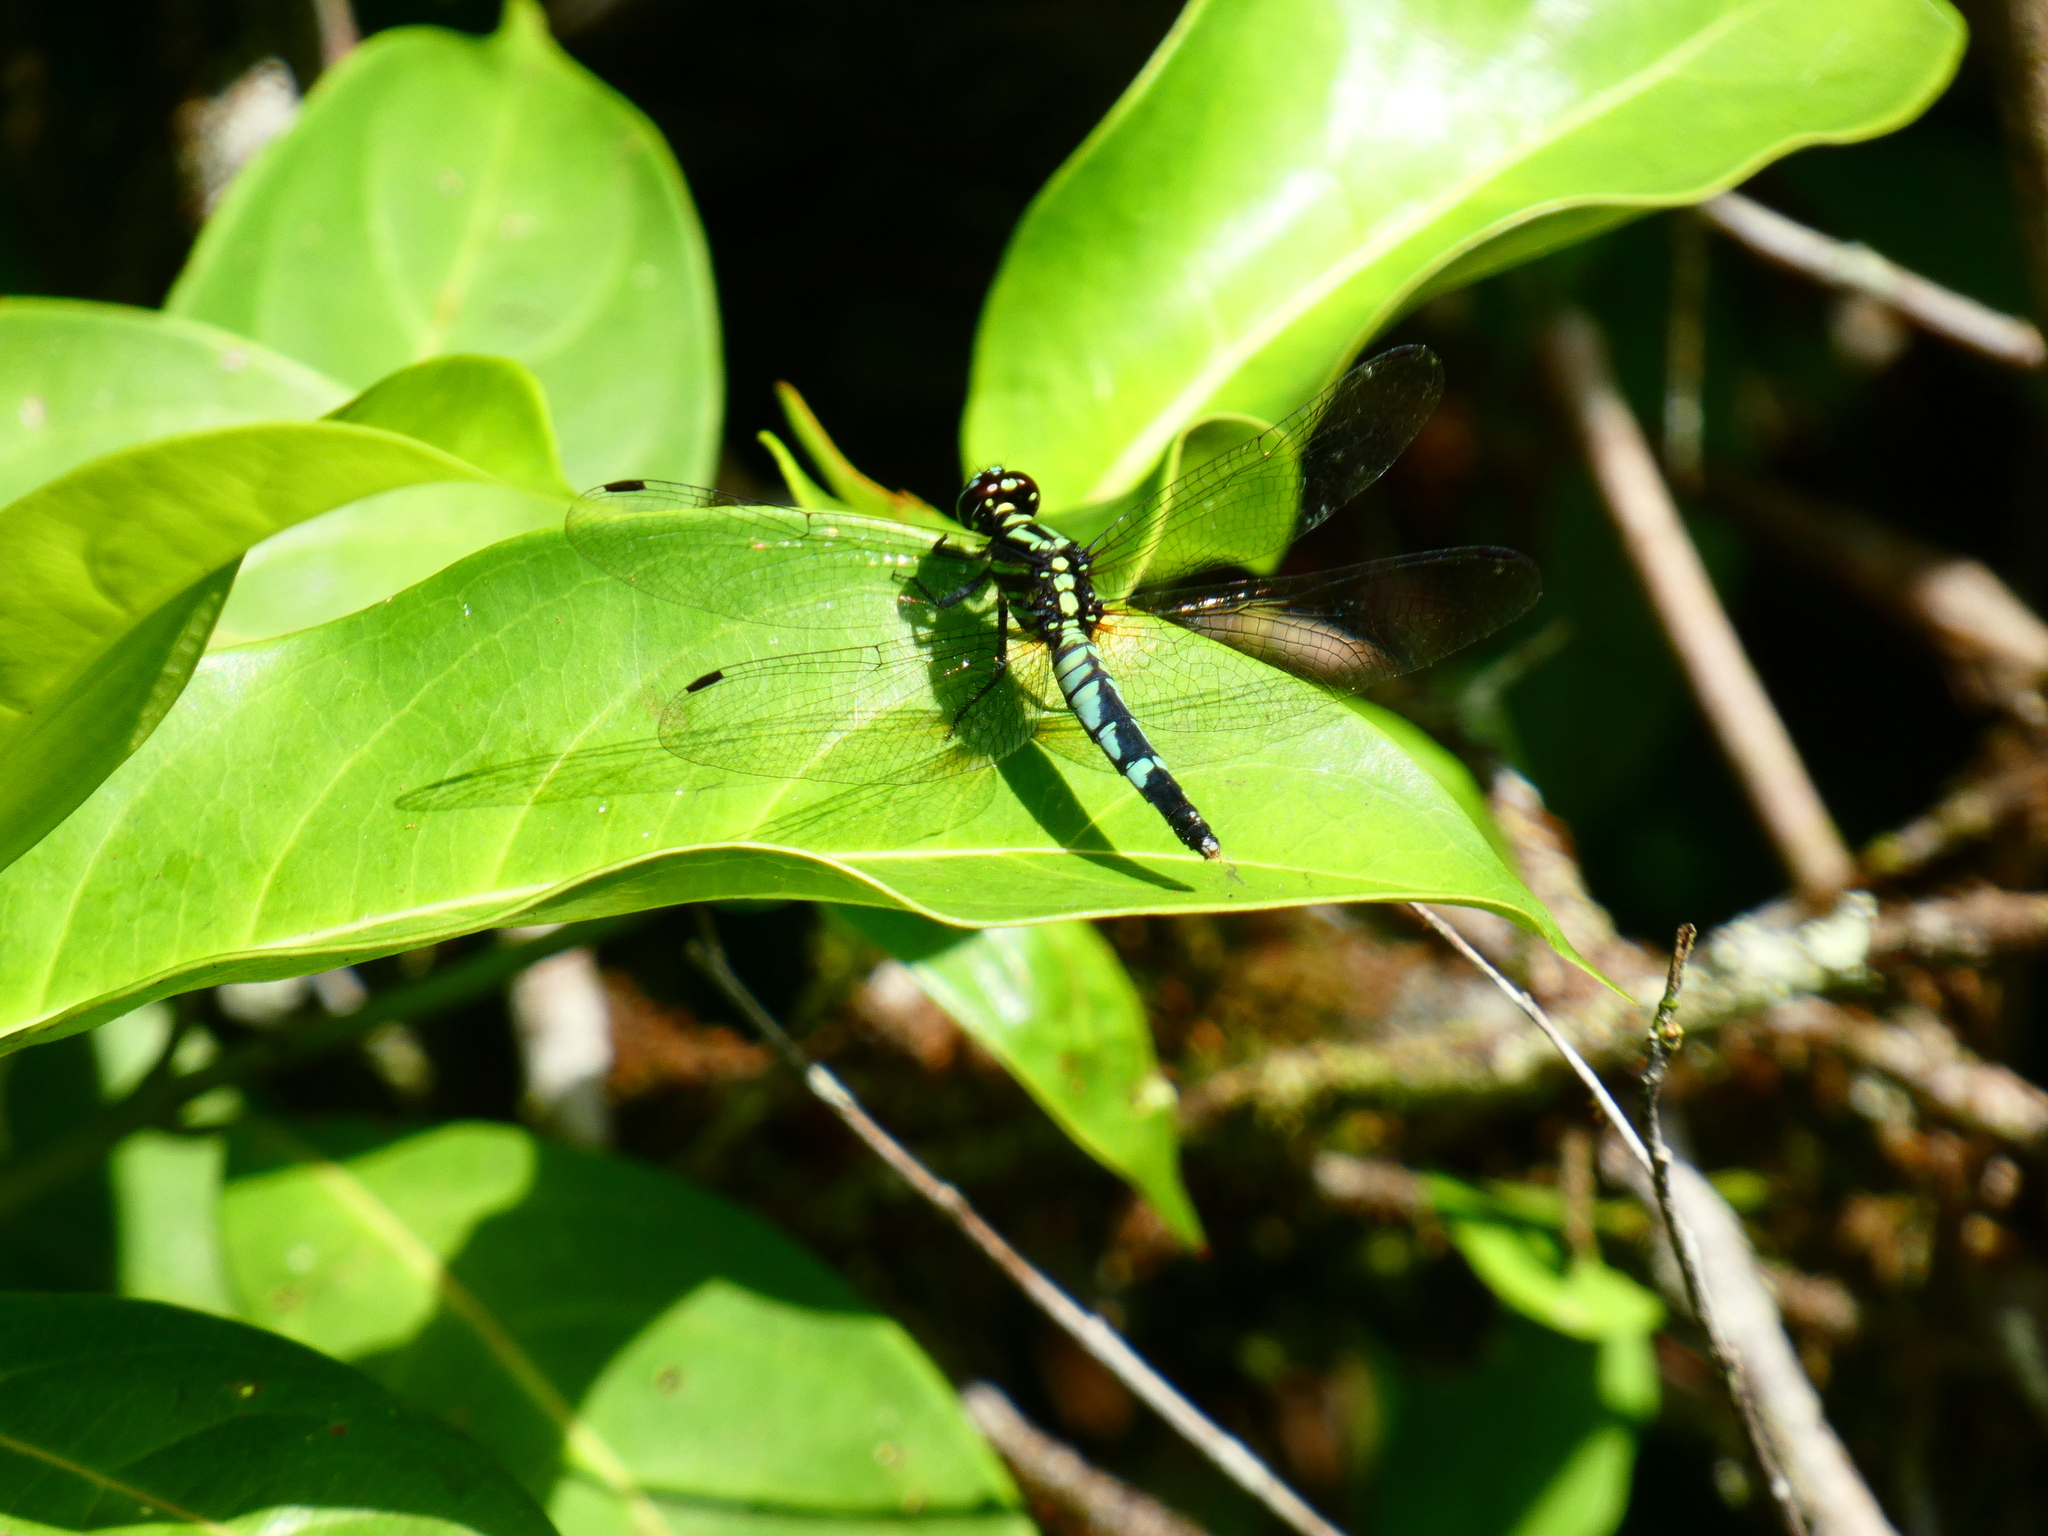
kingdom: Animalia
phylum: Arthropoda
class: Insecta
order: Odonata
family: Libellulidae
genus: Porpax
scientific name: Porpax asperipes
